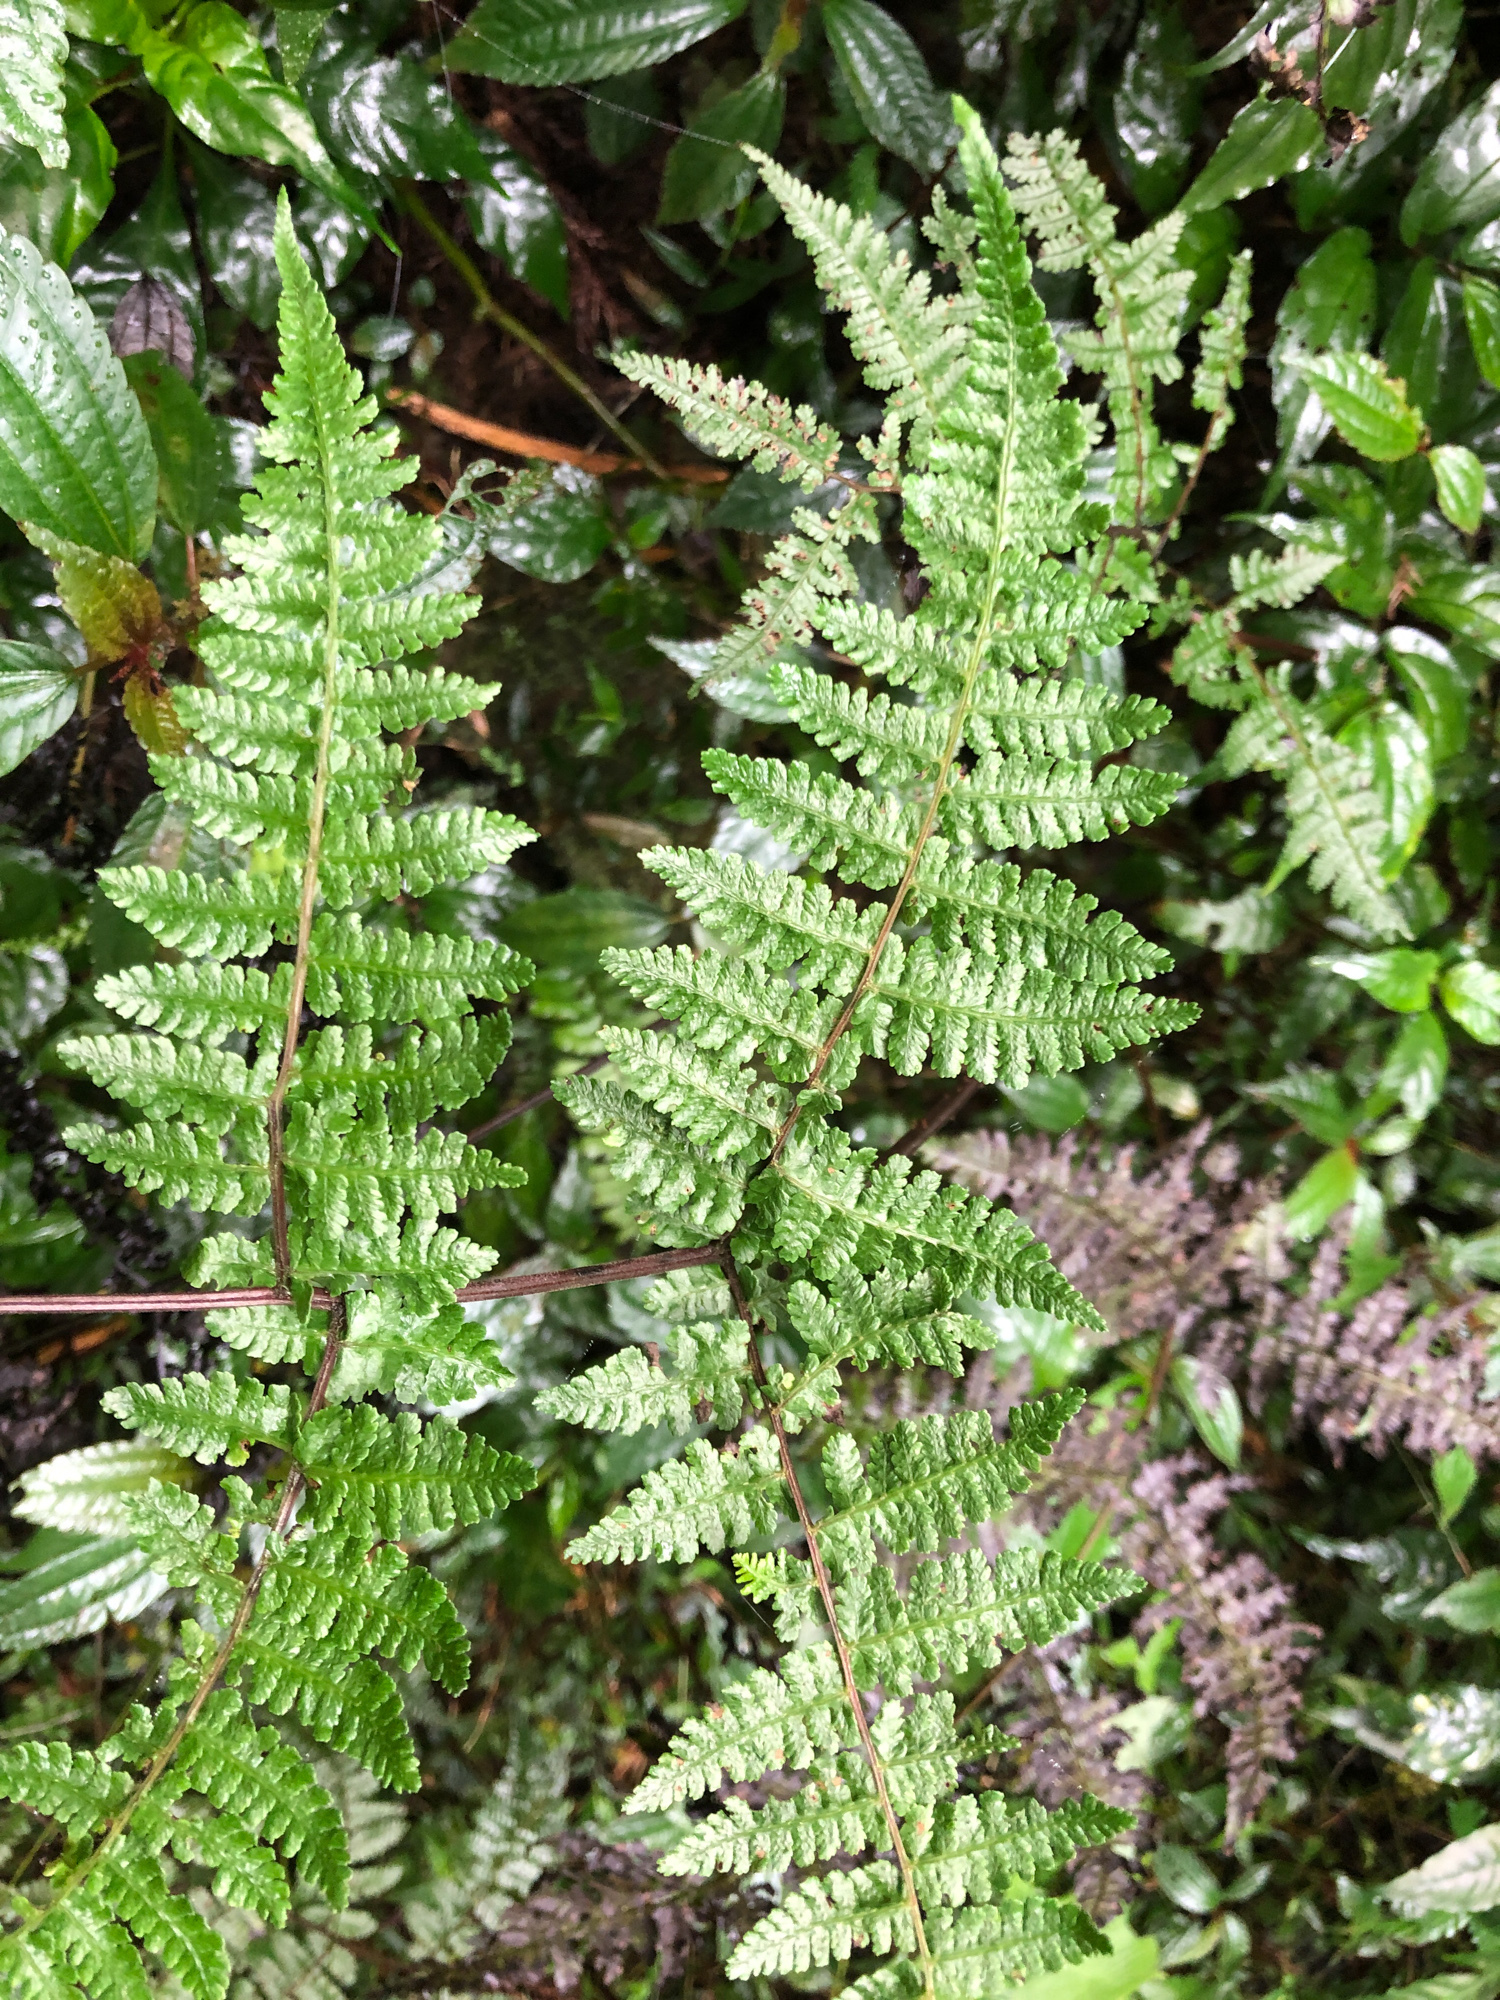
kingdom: Plantae
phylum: Tracheophyta
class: Polypodiopsida
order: Polypodiales
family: Athyriaceae
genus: Cornopteris
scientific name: Cornopteris banajaoensis
